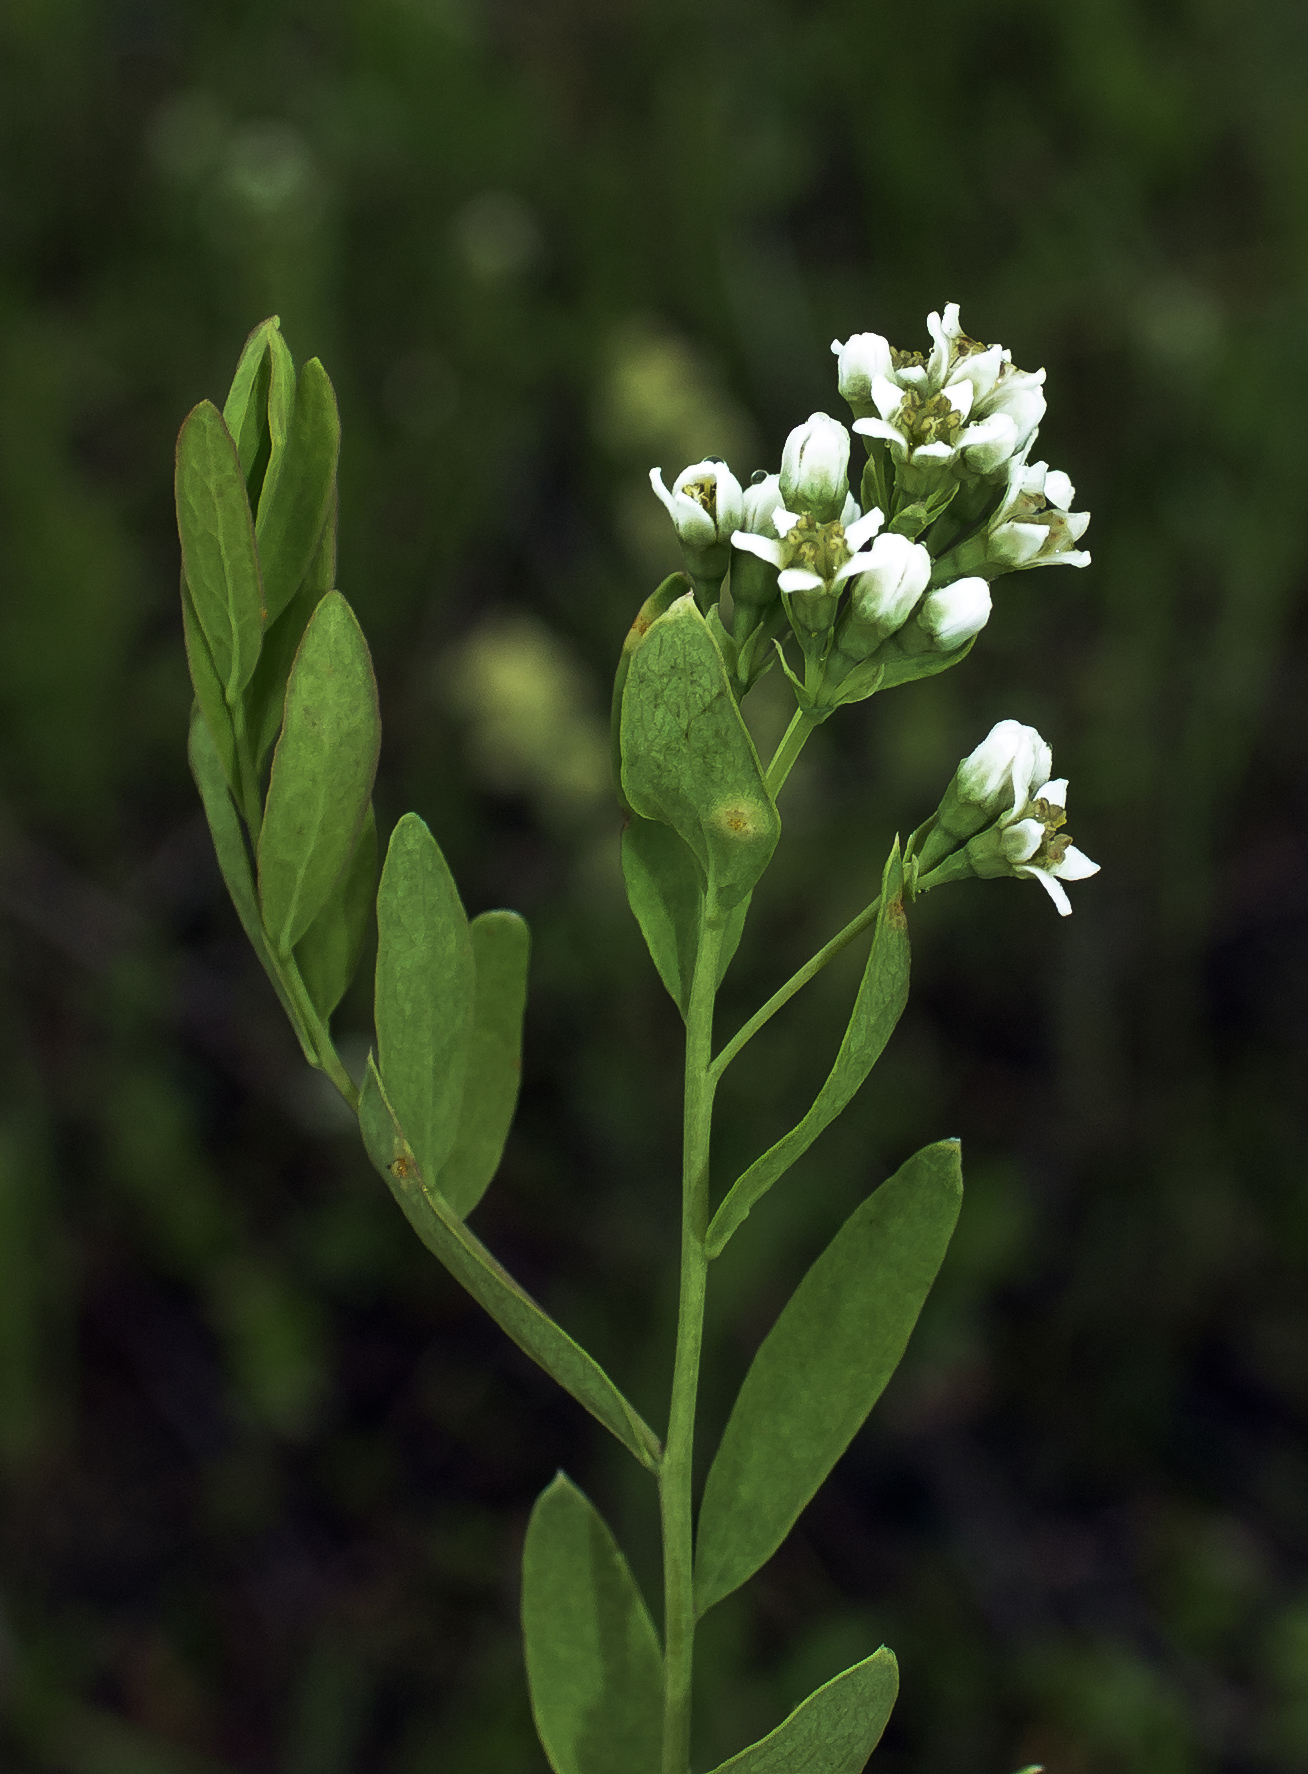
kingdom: Plantae
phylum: Tracheophyta
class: Magnoliopsida
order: Santalales
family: Comandraceae
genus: Comandra
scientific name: Comandra umbellata
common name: Bastard toadflax
